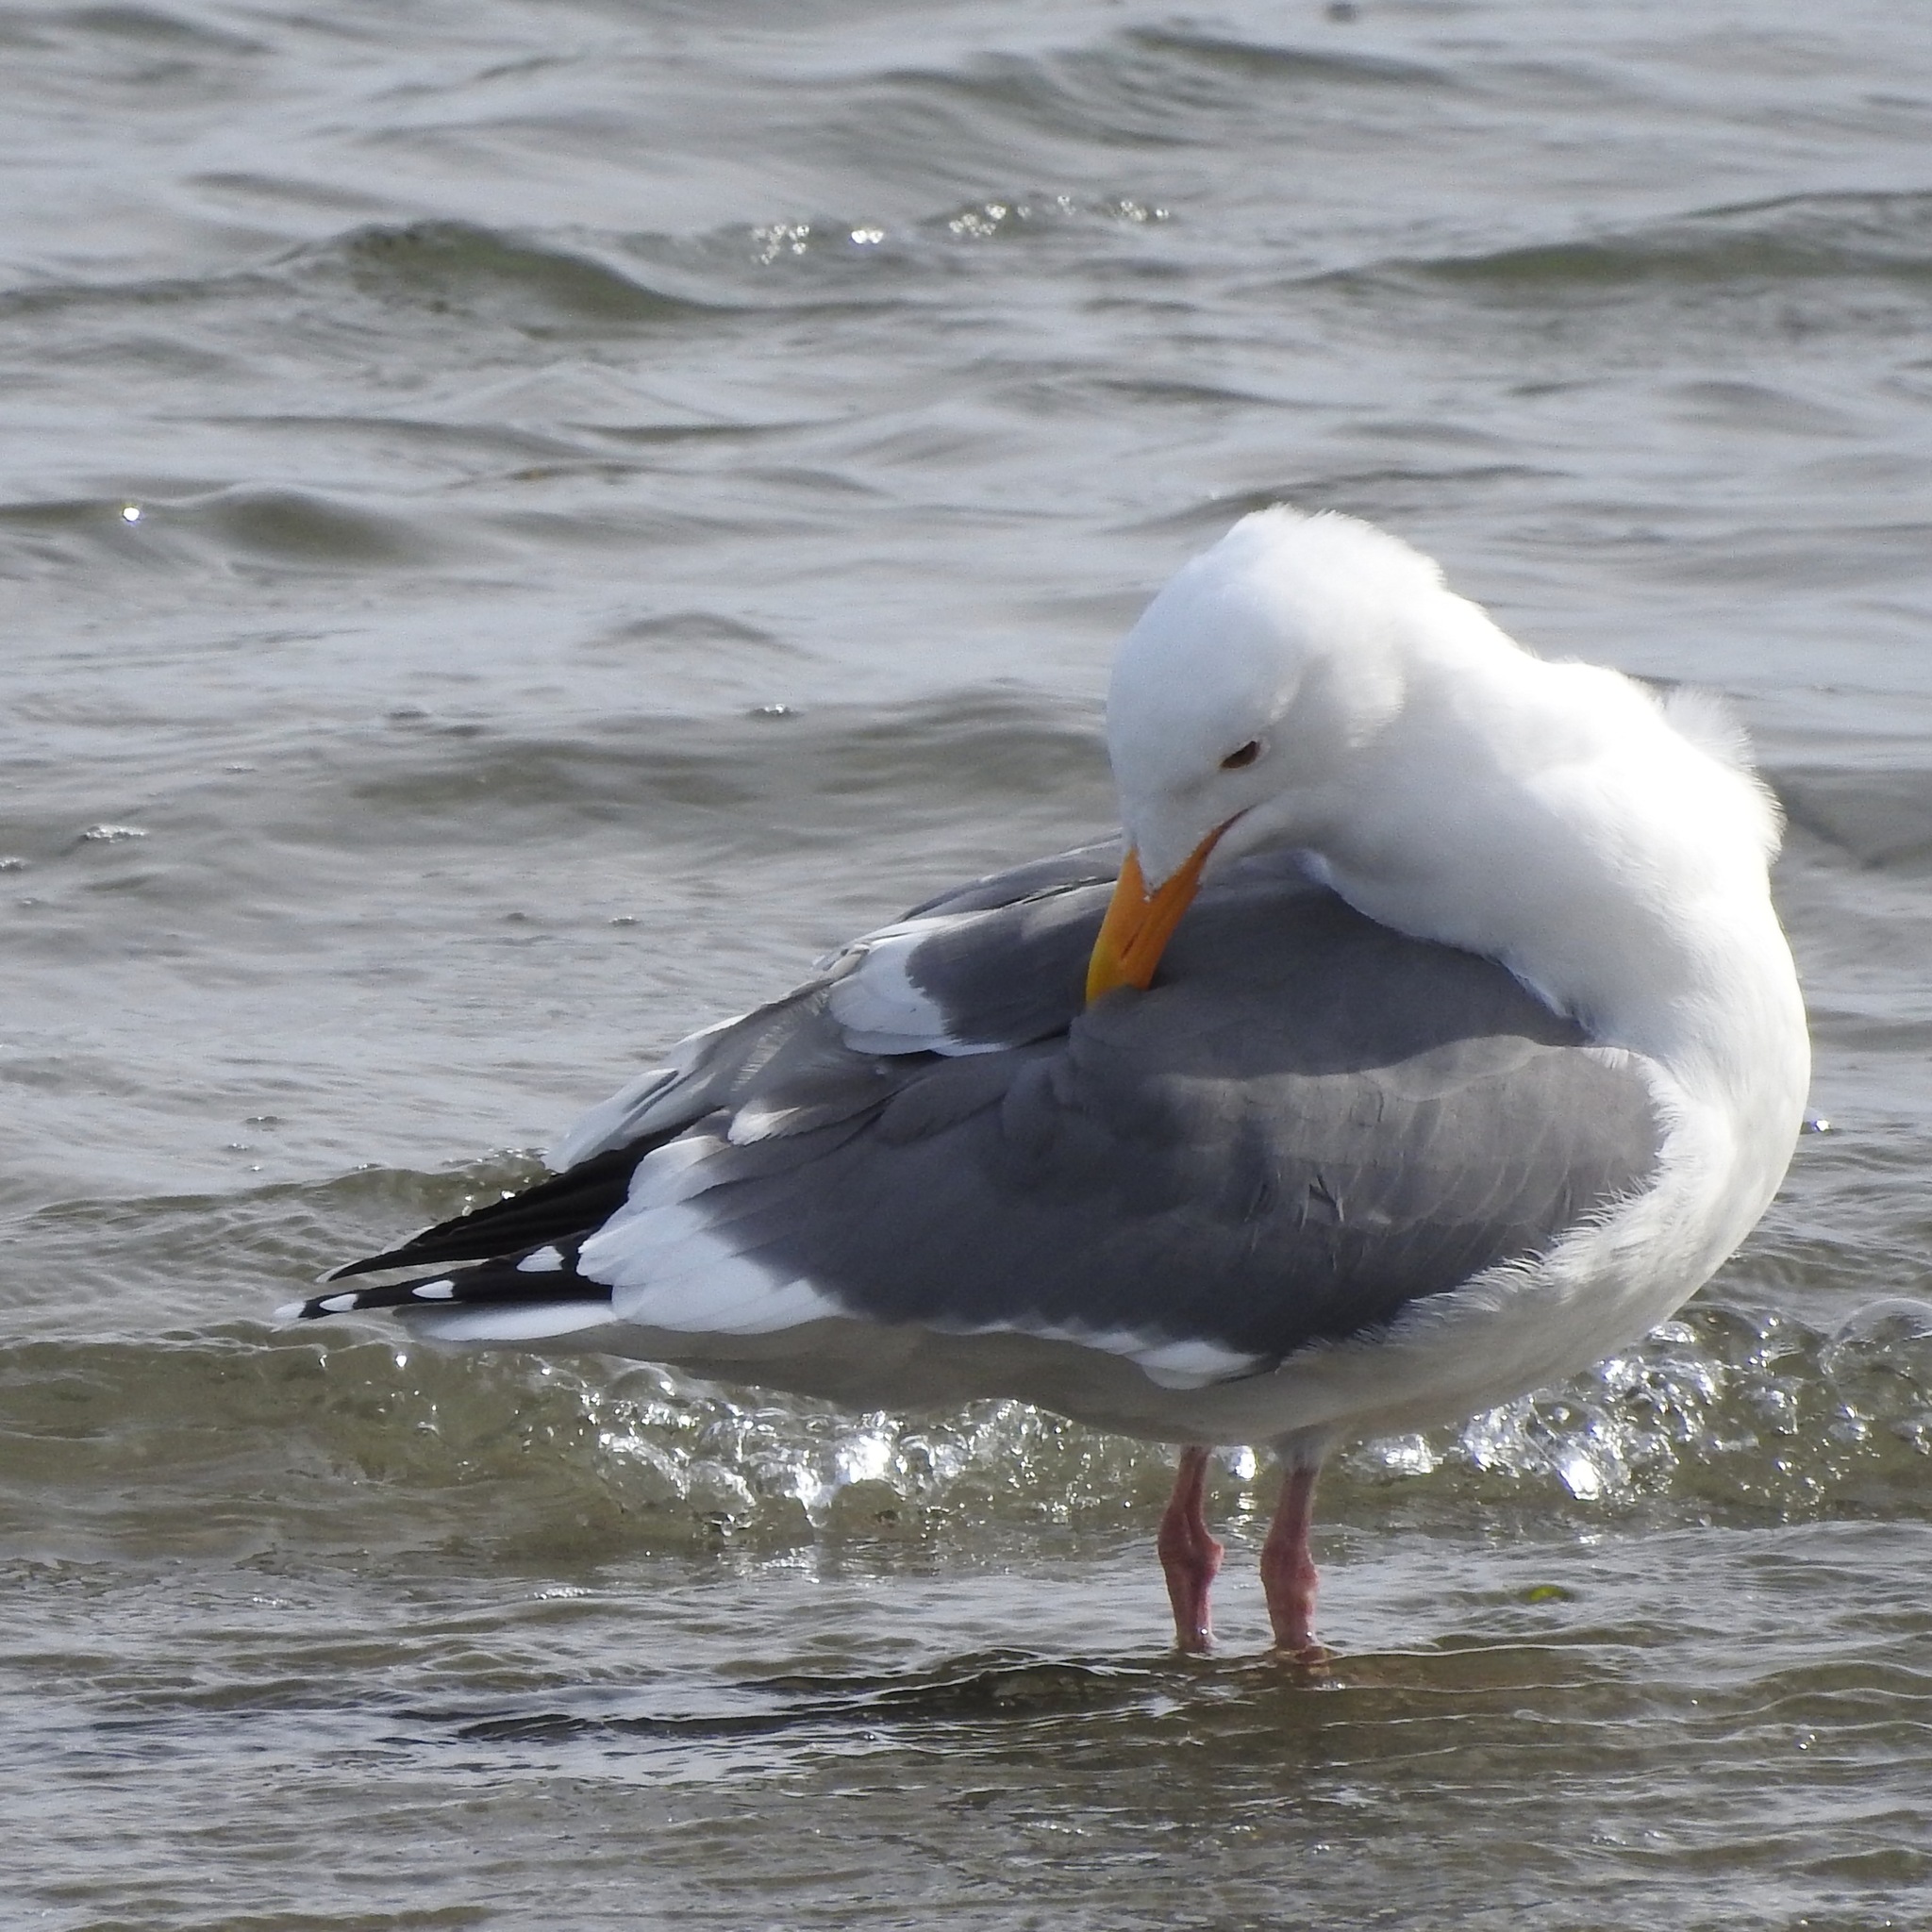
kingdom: Animalia
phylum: Chordata
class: Aves
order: Charadriiformes
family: Laridae
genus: Larus
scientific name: Larus occidentalis
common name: Western gull
